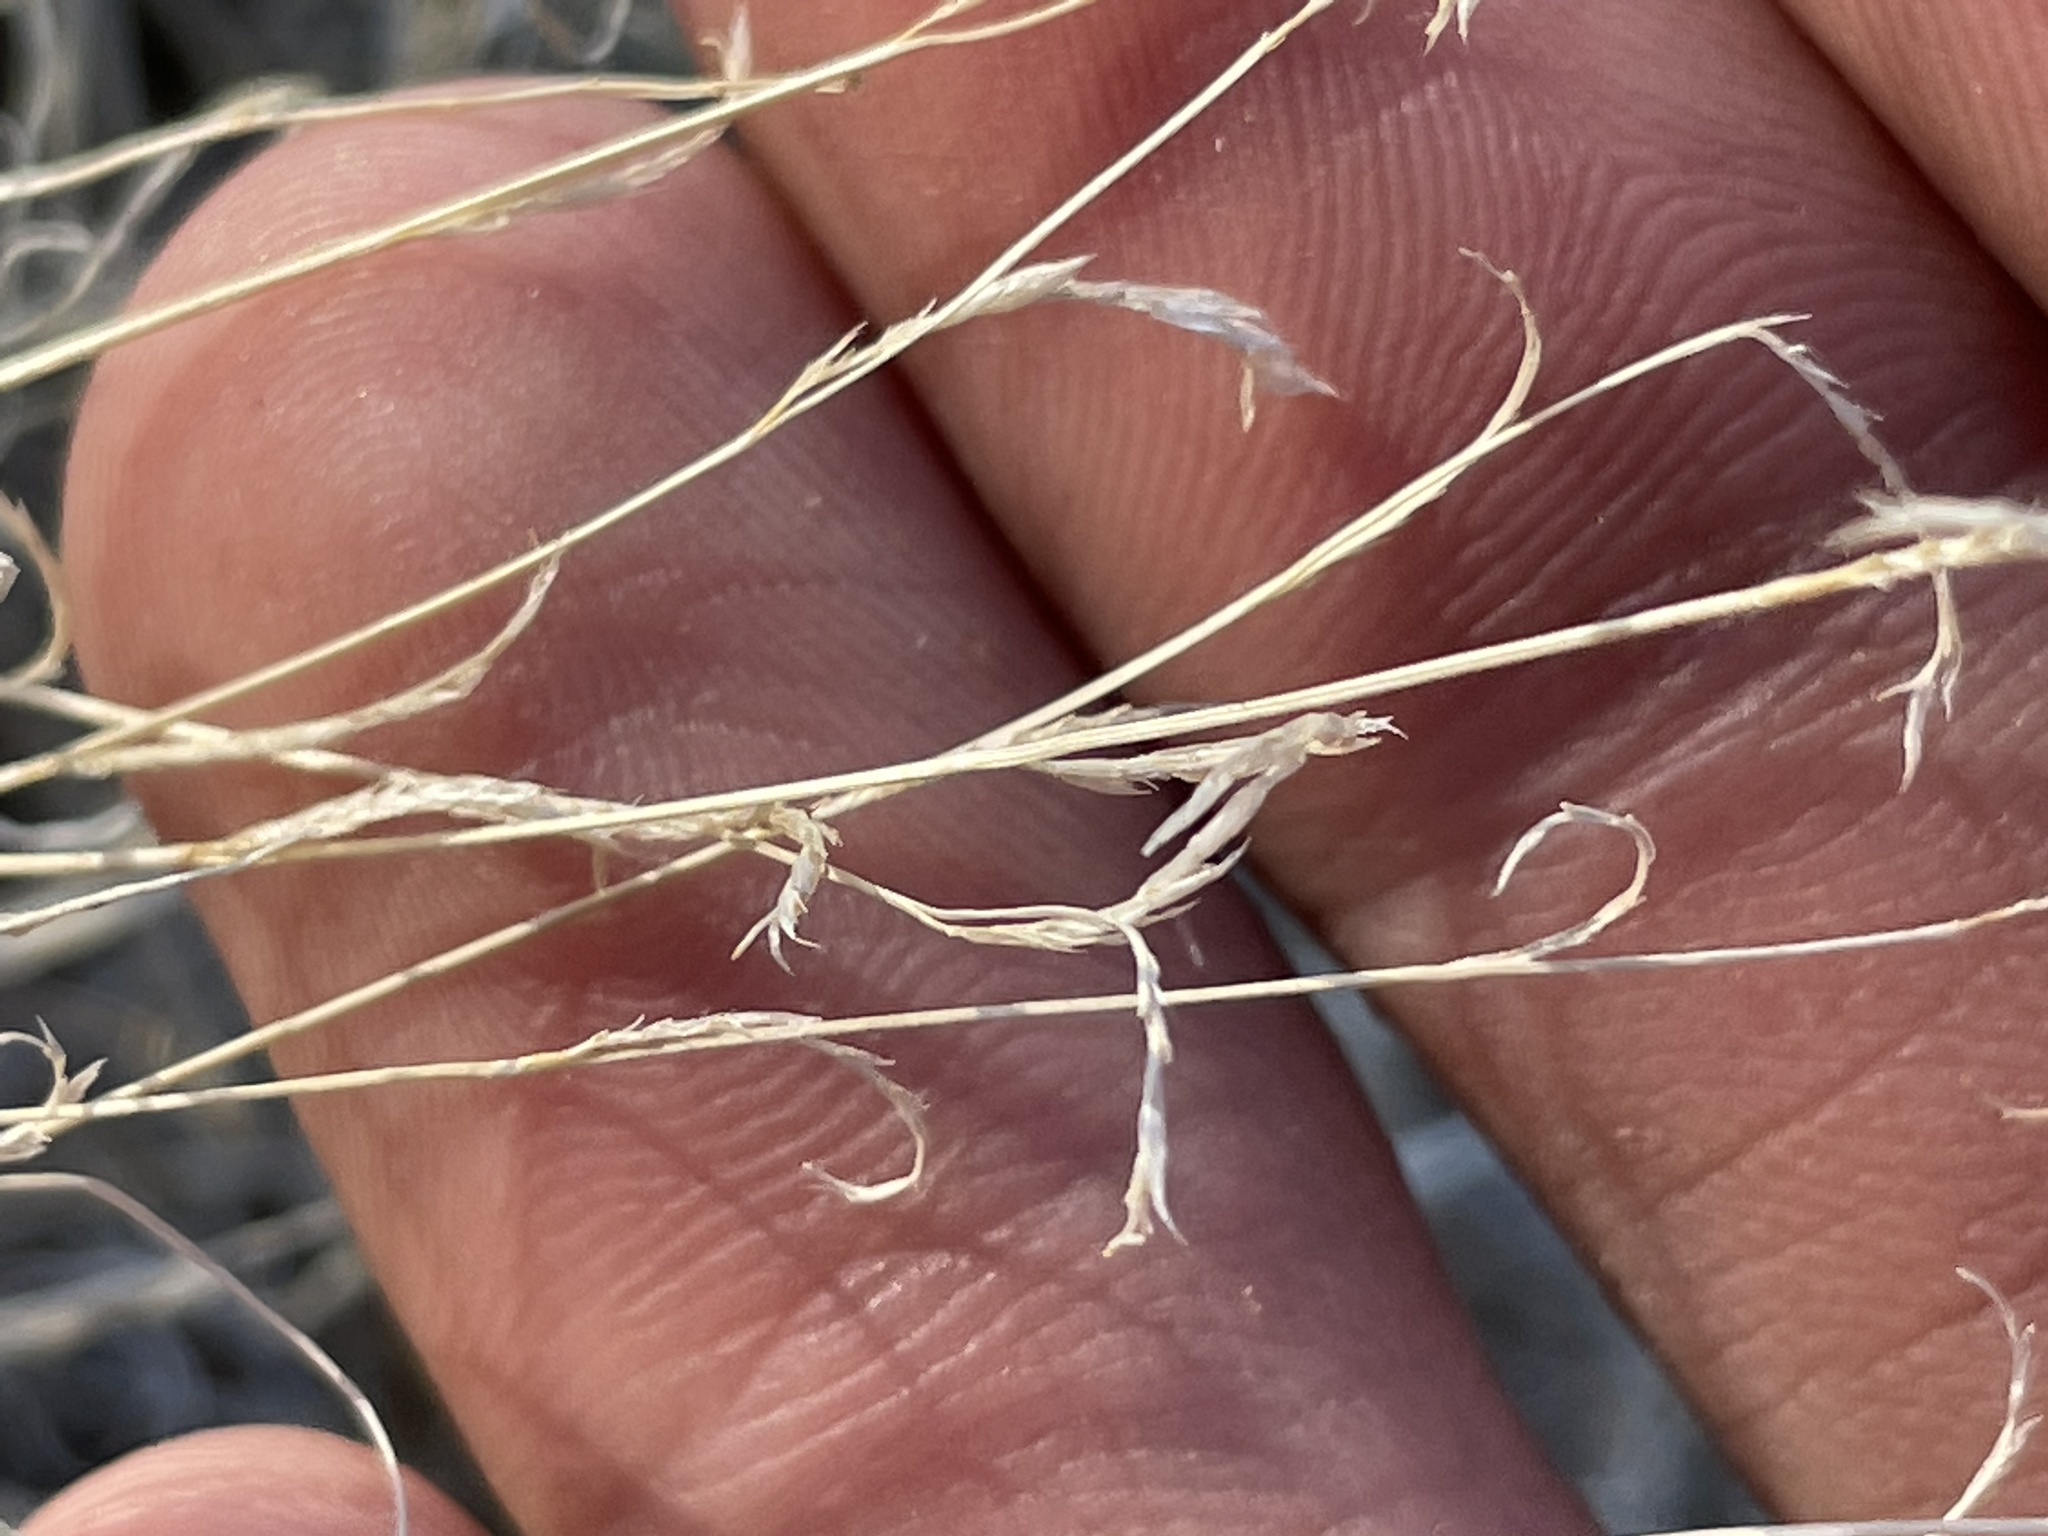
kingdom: Plantae
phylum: Tracheophyta
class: Liliopsida
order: Poales
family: Poaceae
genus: Bouteloua
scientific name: Bouteloua barbata
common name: Six-weeks grama
